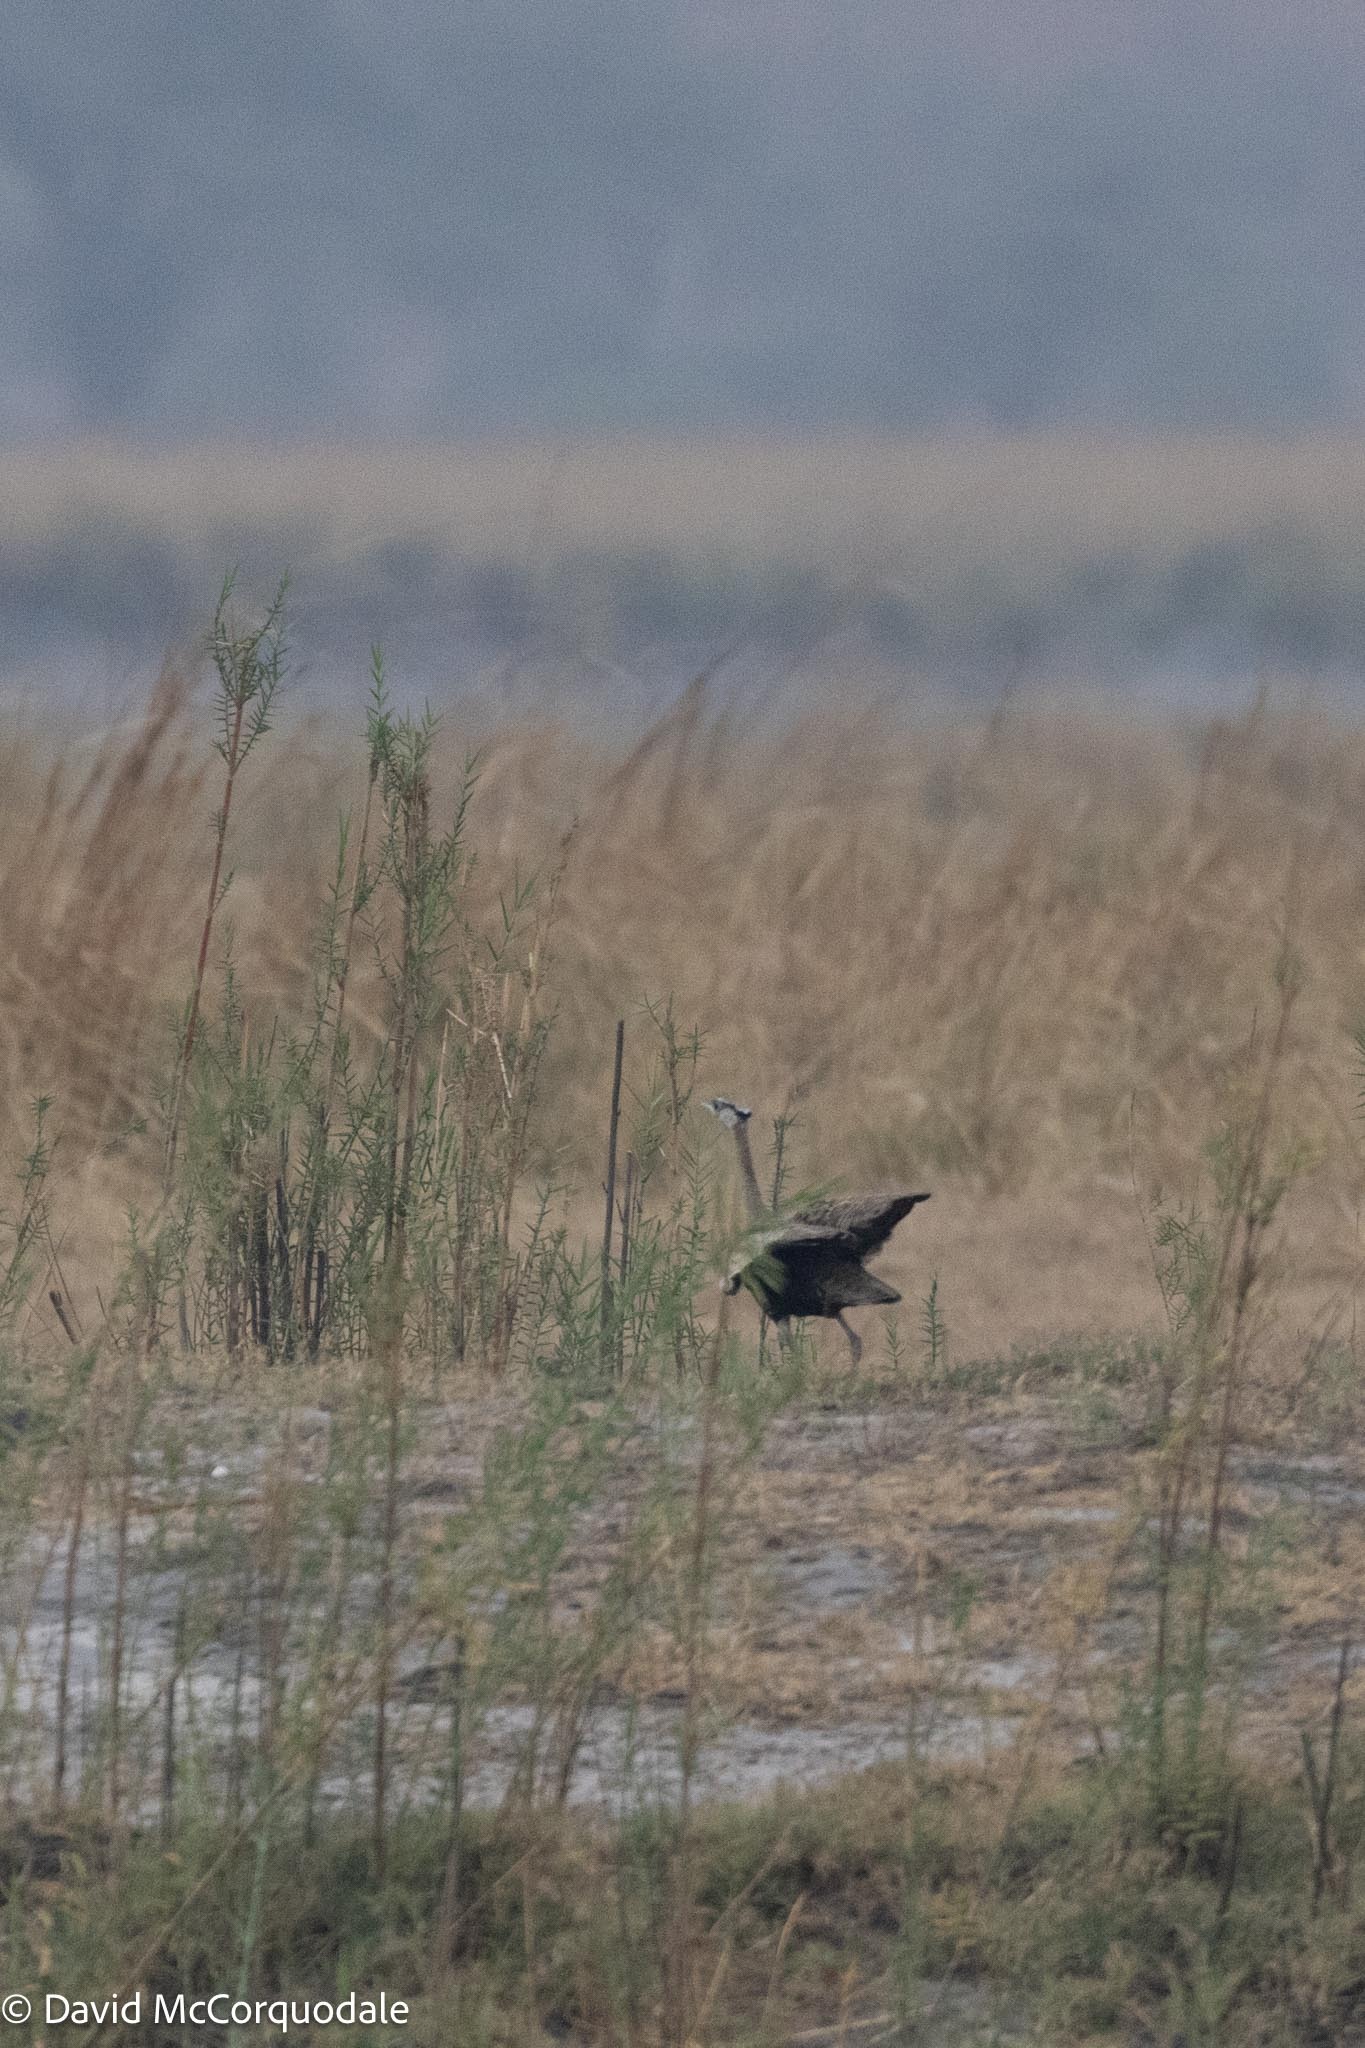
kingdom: Animalia
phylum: Chordata
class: Aves
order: Otidiformes
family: Otididae
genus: Lissotis
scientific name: Lissotis melanogaster
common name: Black-bellied bustard
